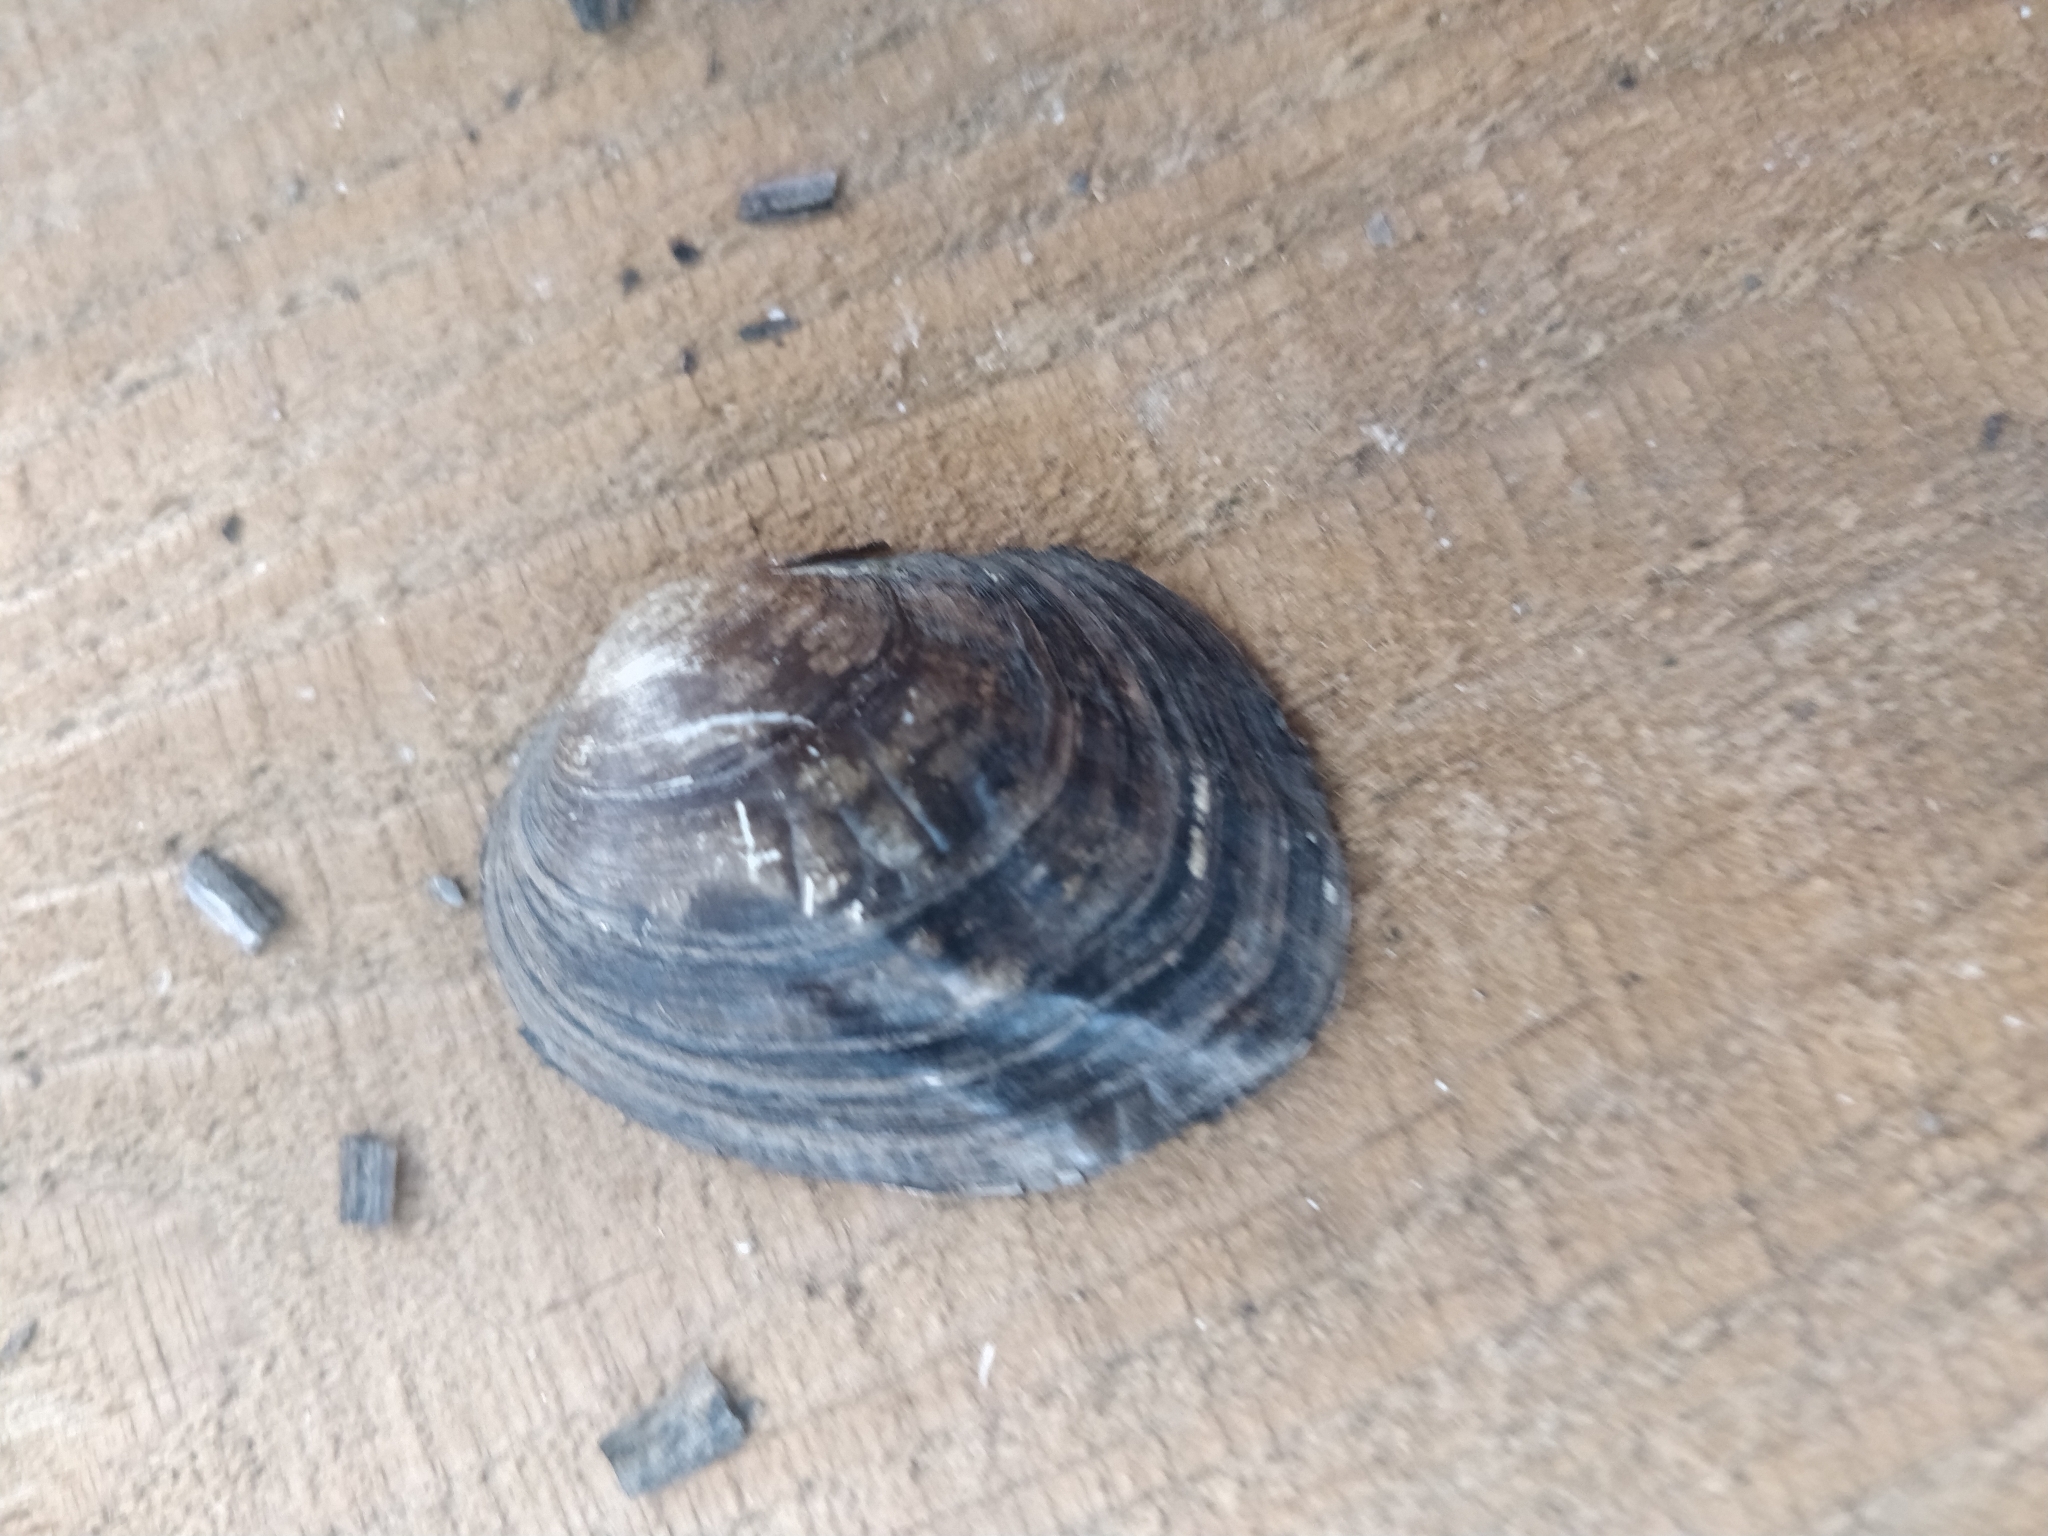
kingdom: Animalia
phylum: Mollusca
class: Bivalvia
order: Unionida
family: Unionidae
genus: Amblema
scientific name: Amblema plicata
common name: Threeridge
